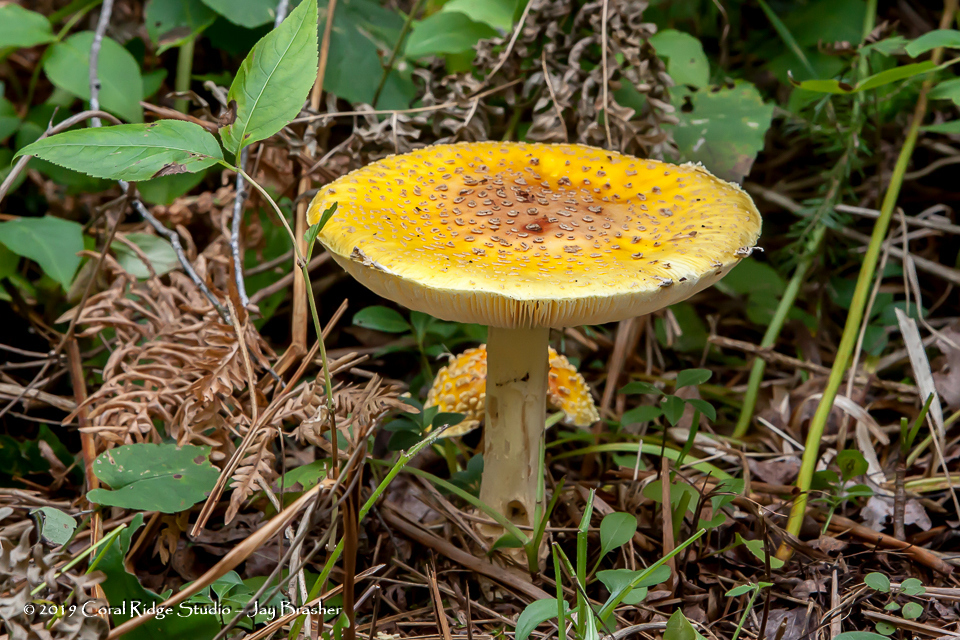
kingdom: Fungi
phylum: Basidiomycota
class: Agaricomycetes
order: Agaricales
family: Amanitaceae
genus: Amanita
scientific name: Amanita muscaria
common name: Fly agaric
